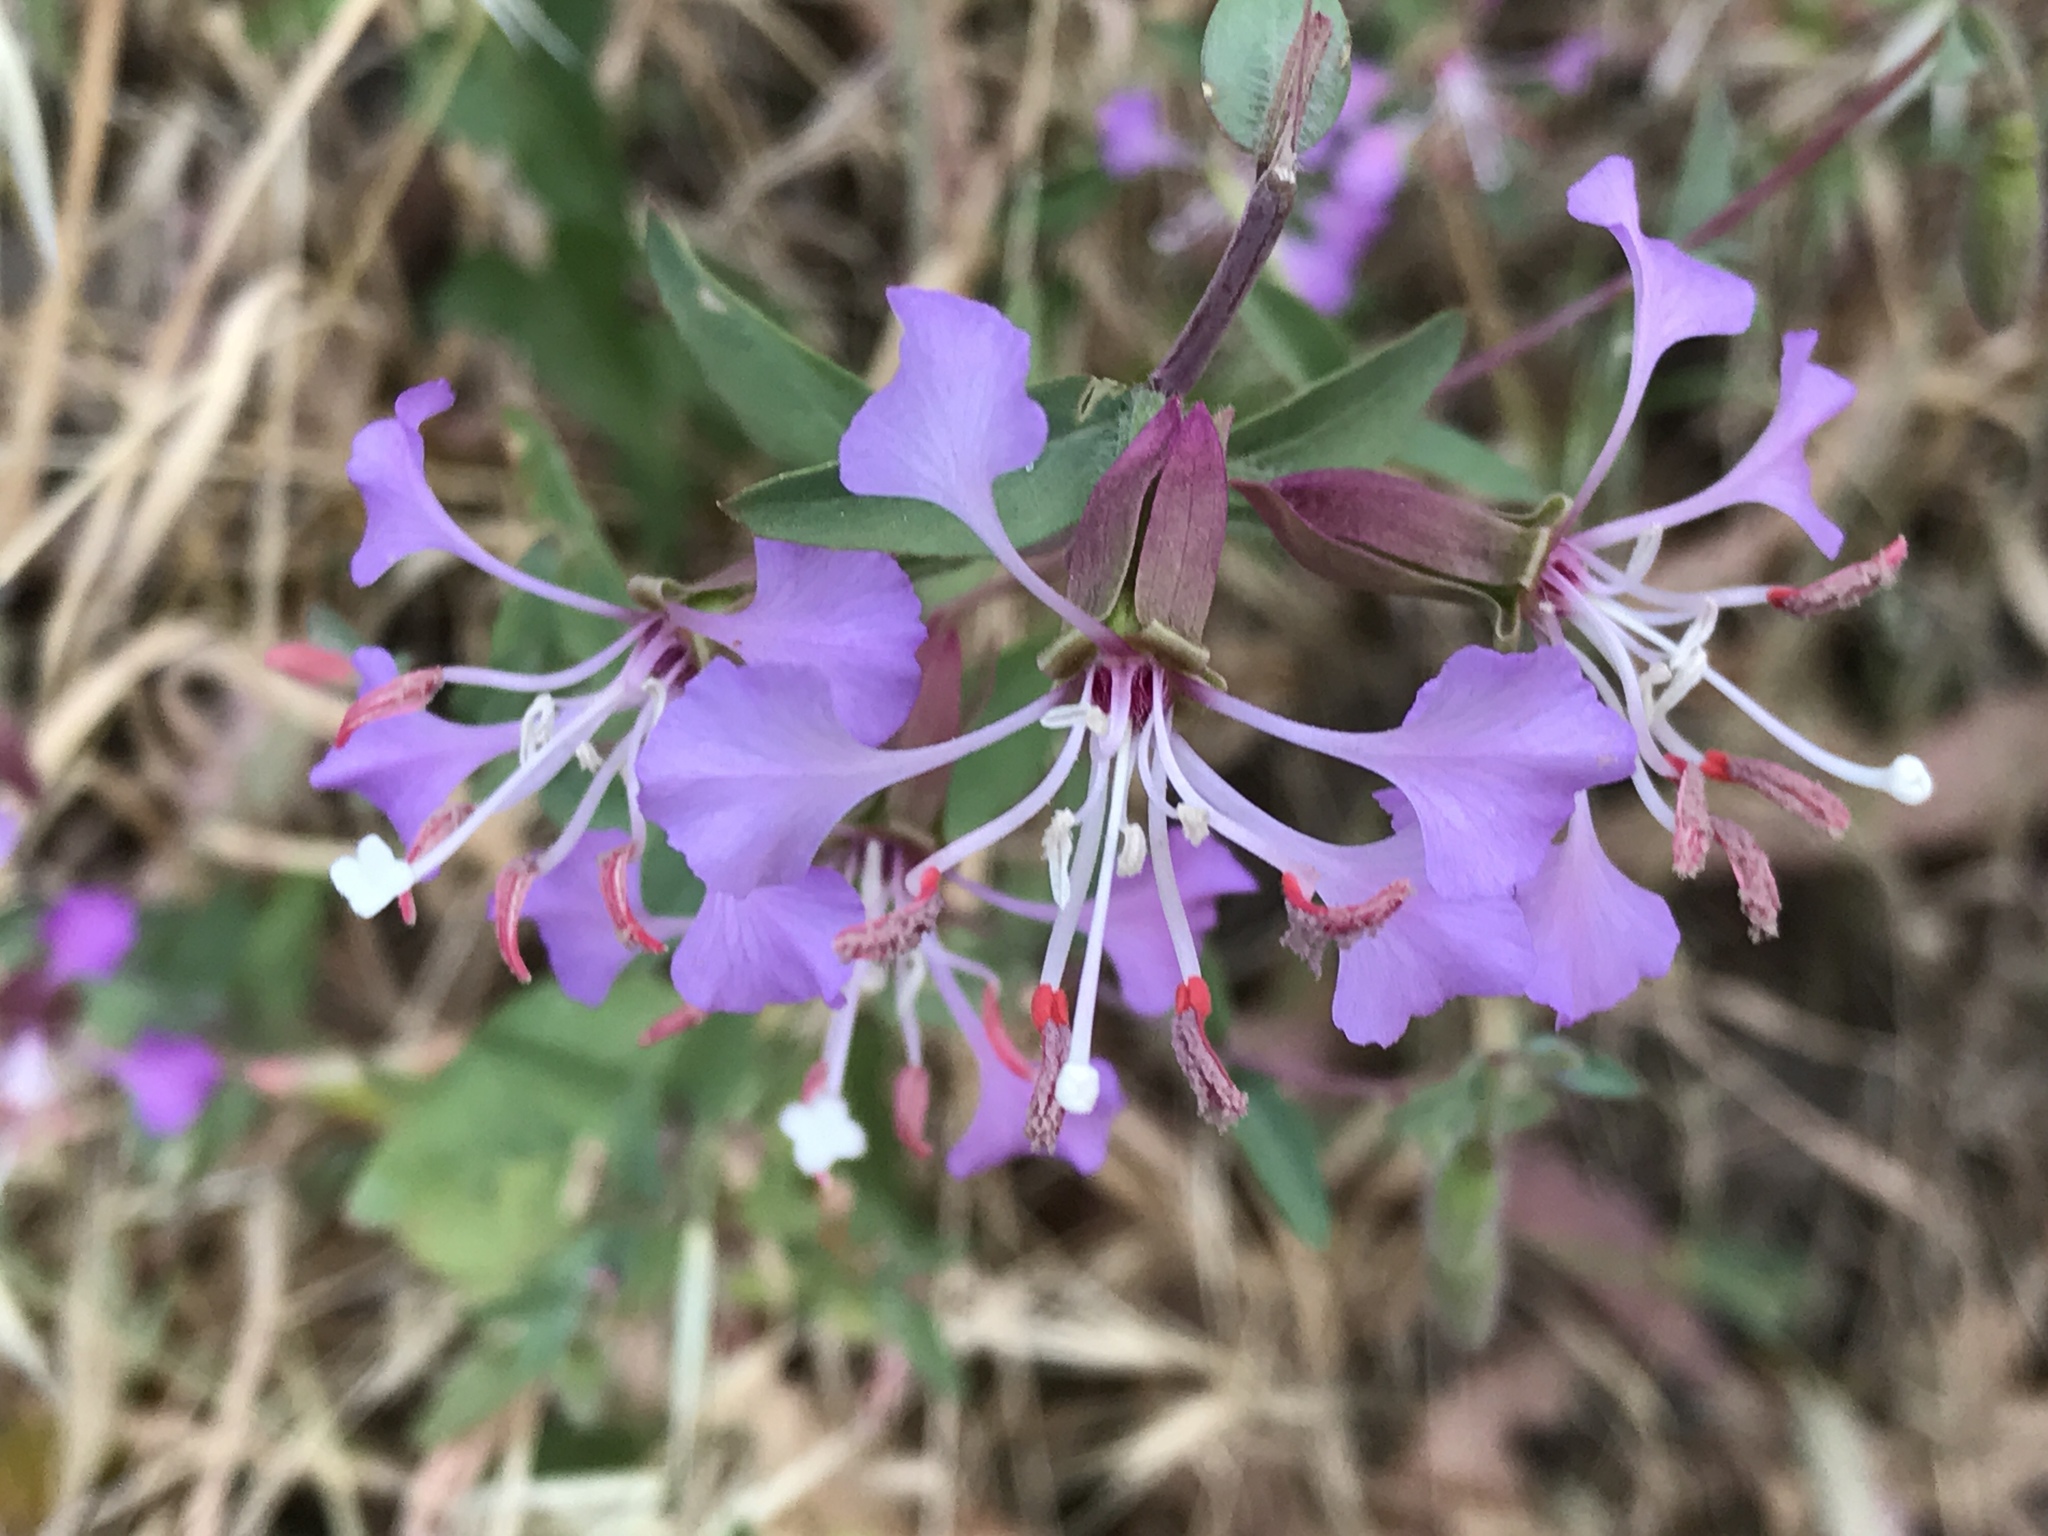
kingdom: Plantae
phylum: Tracheophyta
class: Magnoliopsida
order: Myrtales
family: Onagraceae
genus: Clarkia
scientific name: Clarkia unguiculata
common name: Clarkia
